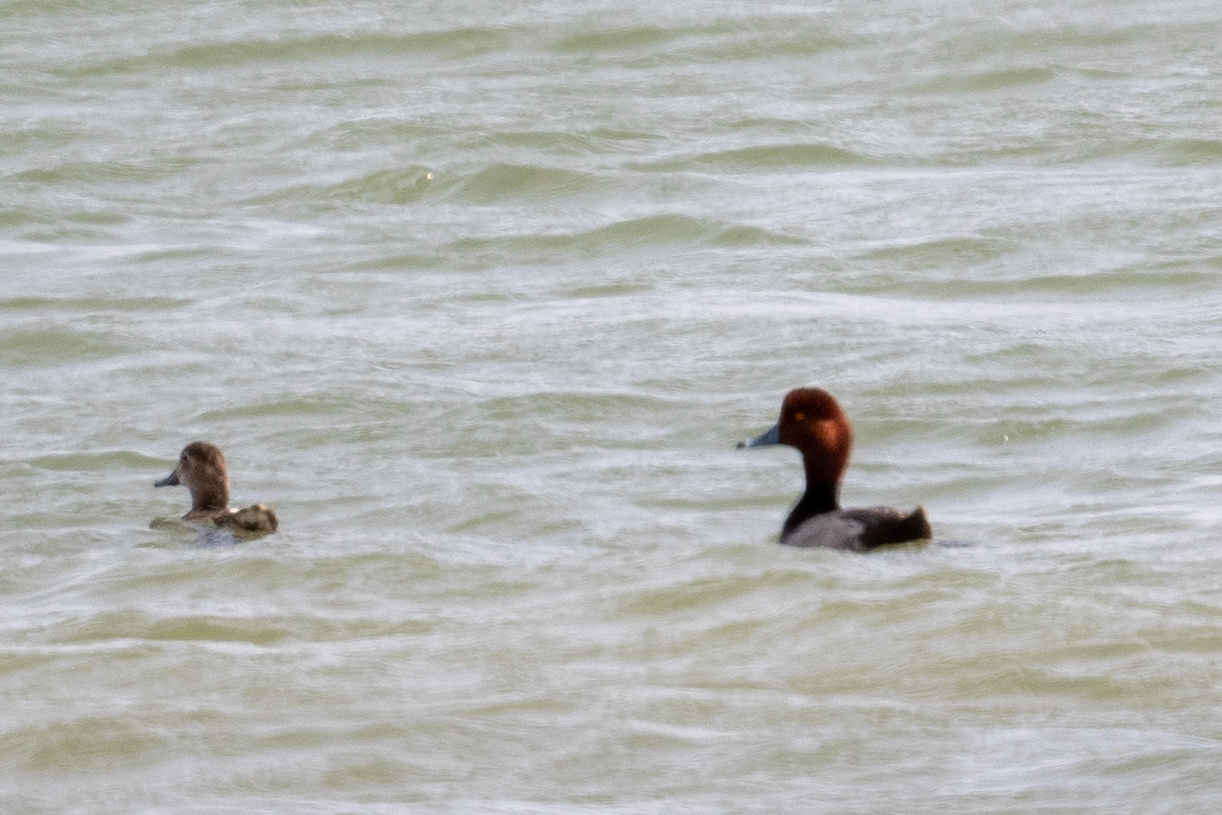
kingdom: Animalia
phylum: Chordata
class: Aves
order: Anseriformes
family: Anatidae
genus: Aythya
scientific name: Aythya americana
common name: Redhead
